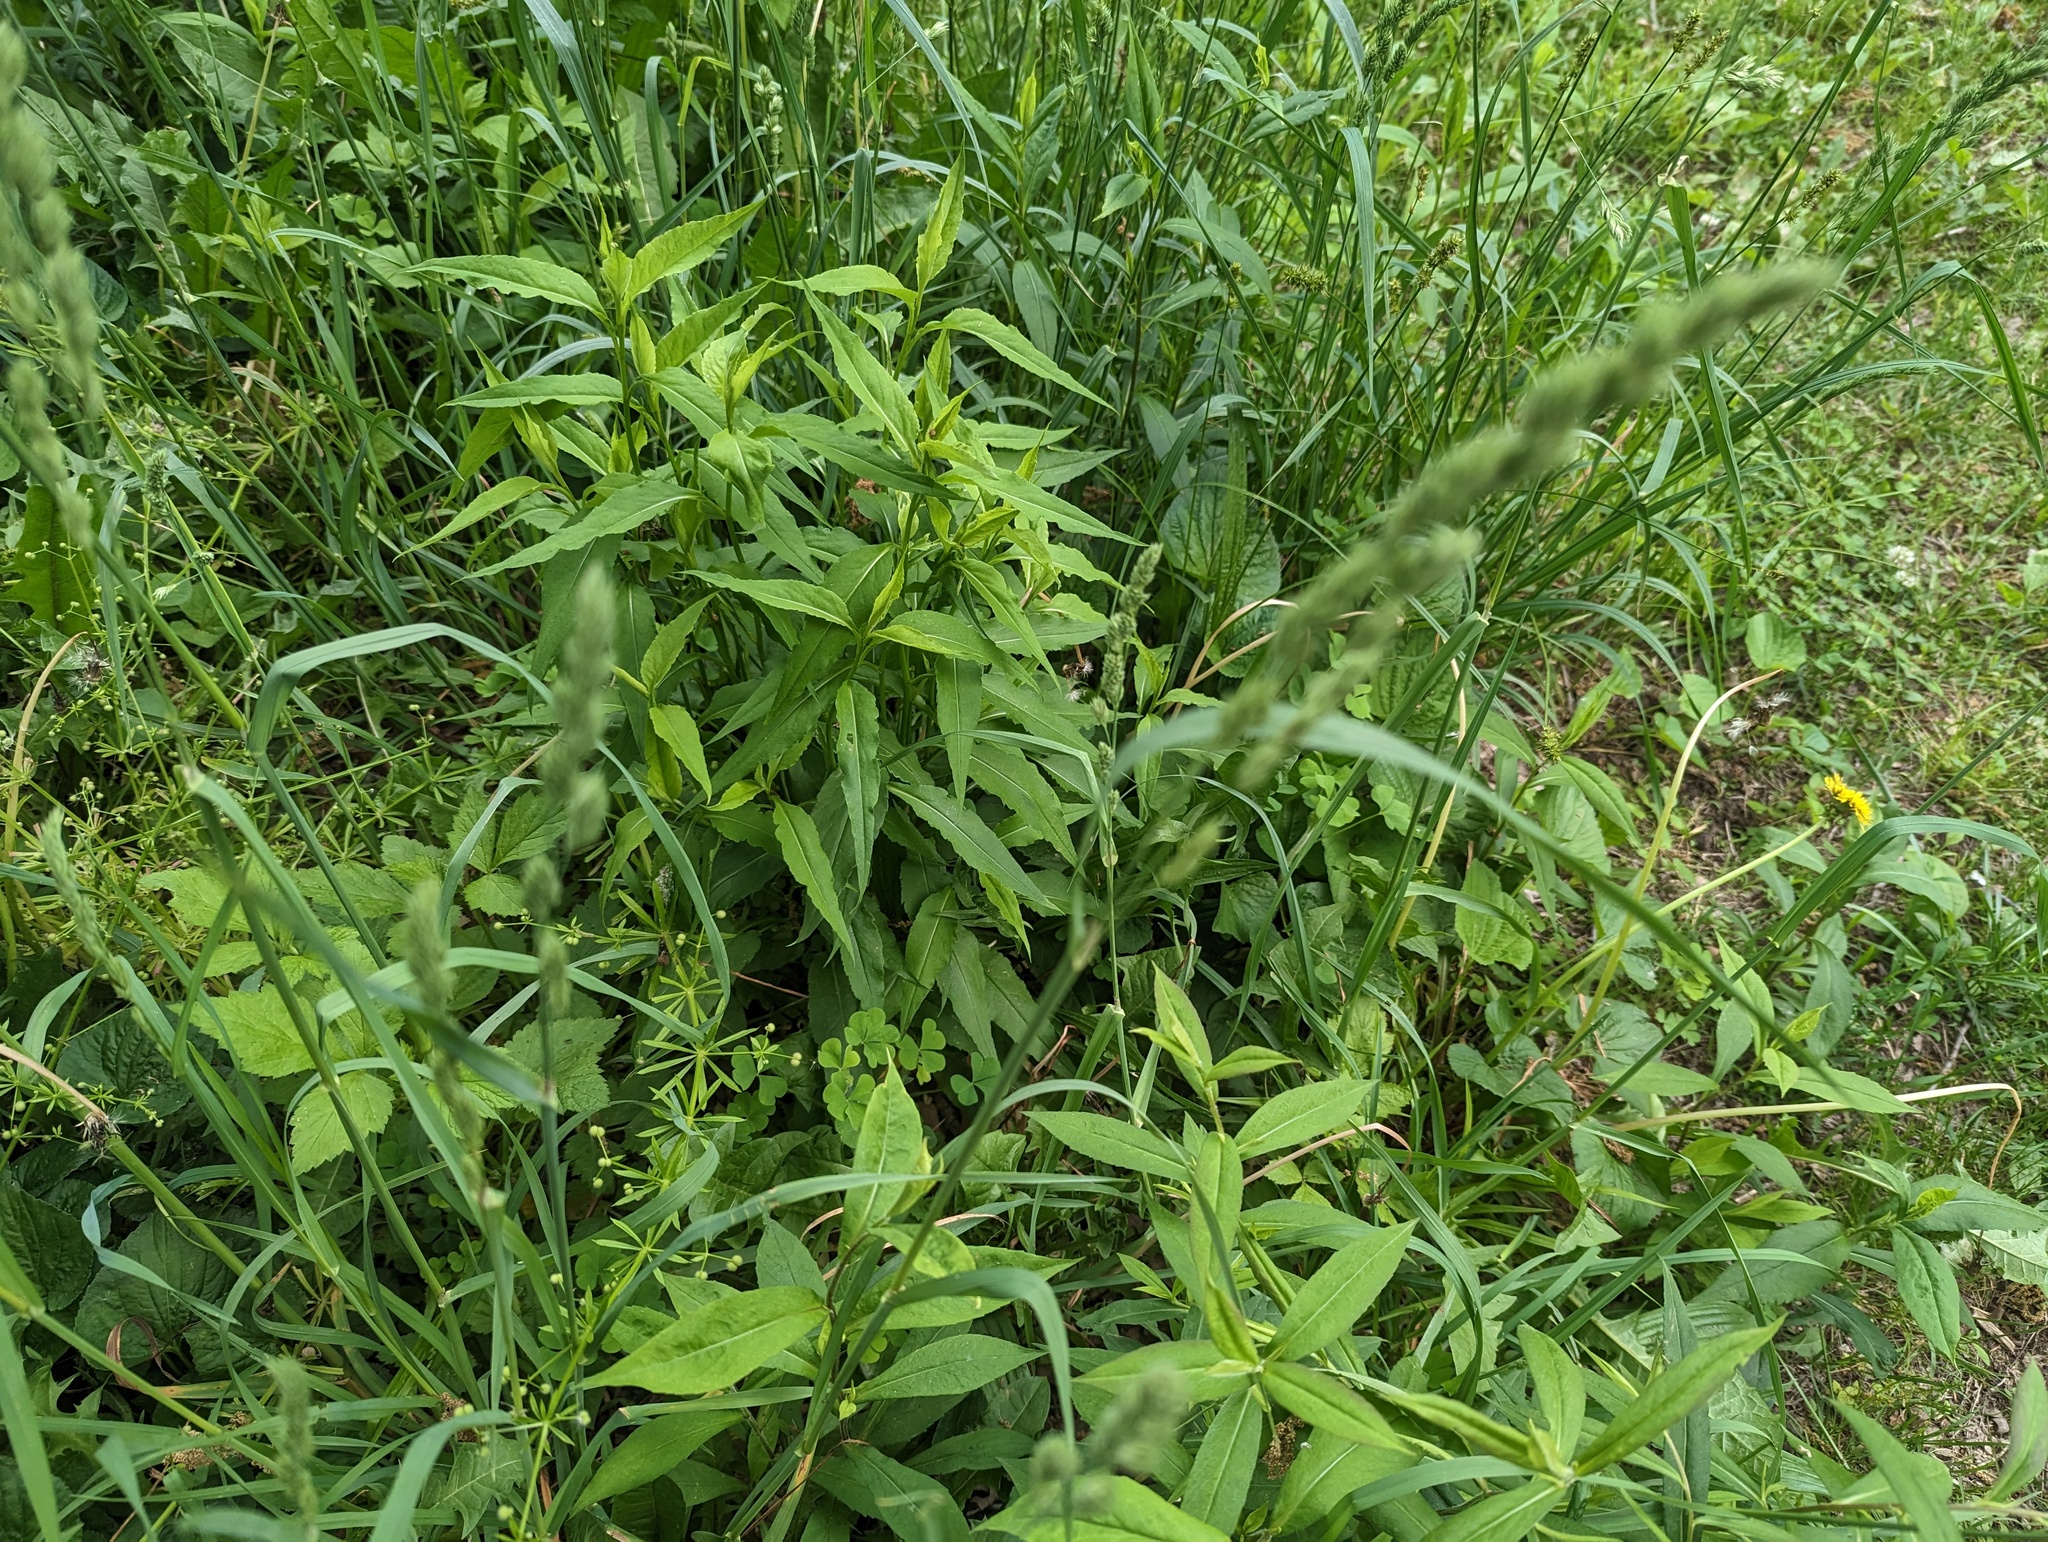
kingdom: Plantae
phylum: Tracheophyta
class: Liliopsida
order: Poales
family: Poaceae
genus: Dactylis
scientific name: Dactylis glomerata
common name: Orchardgrass
